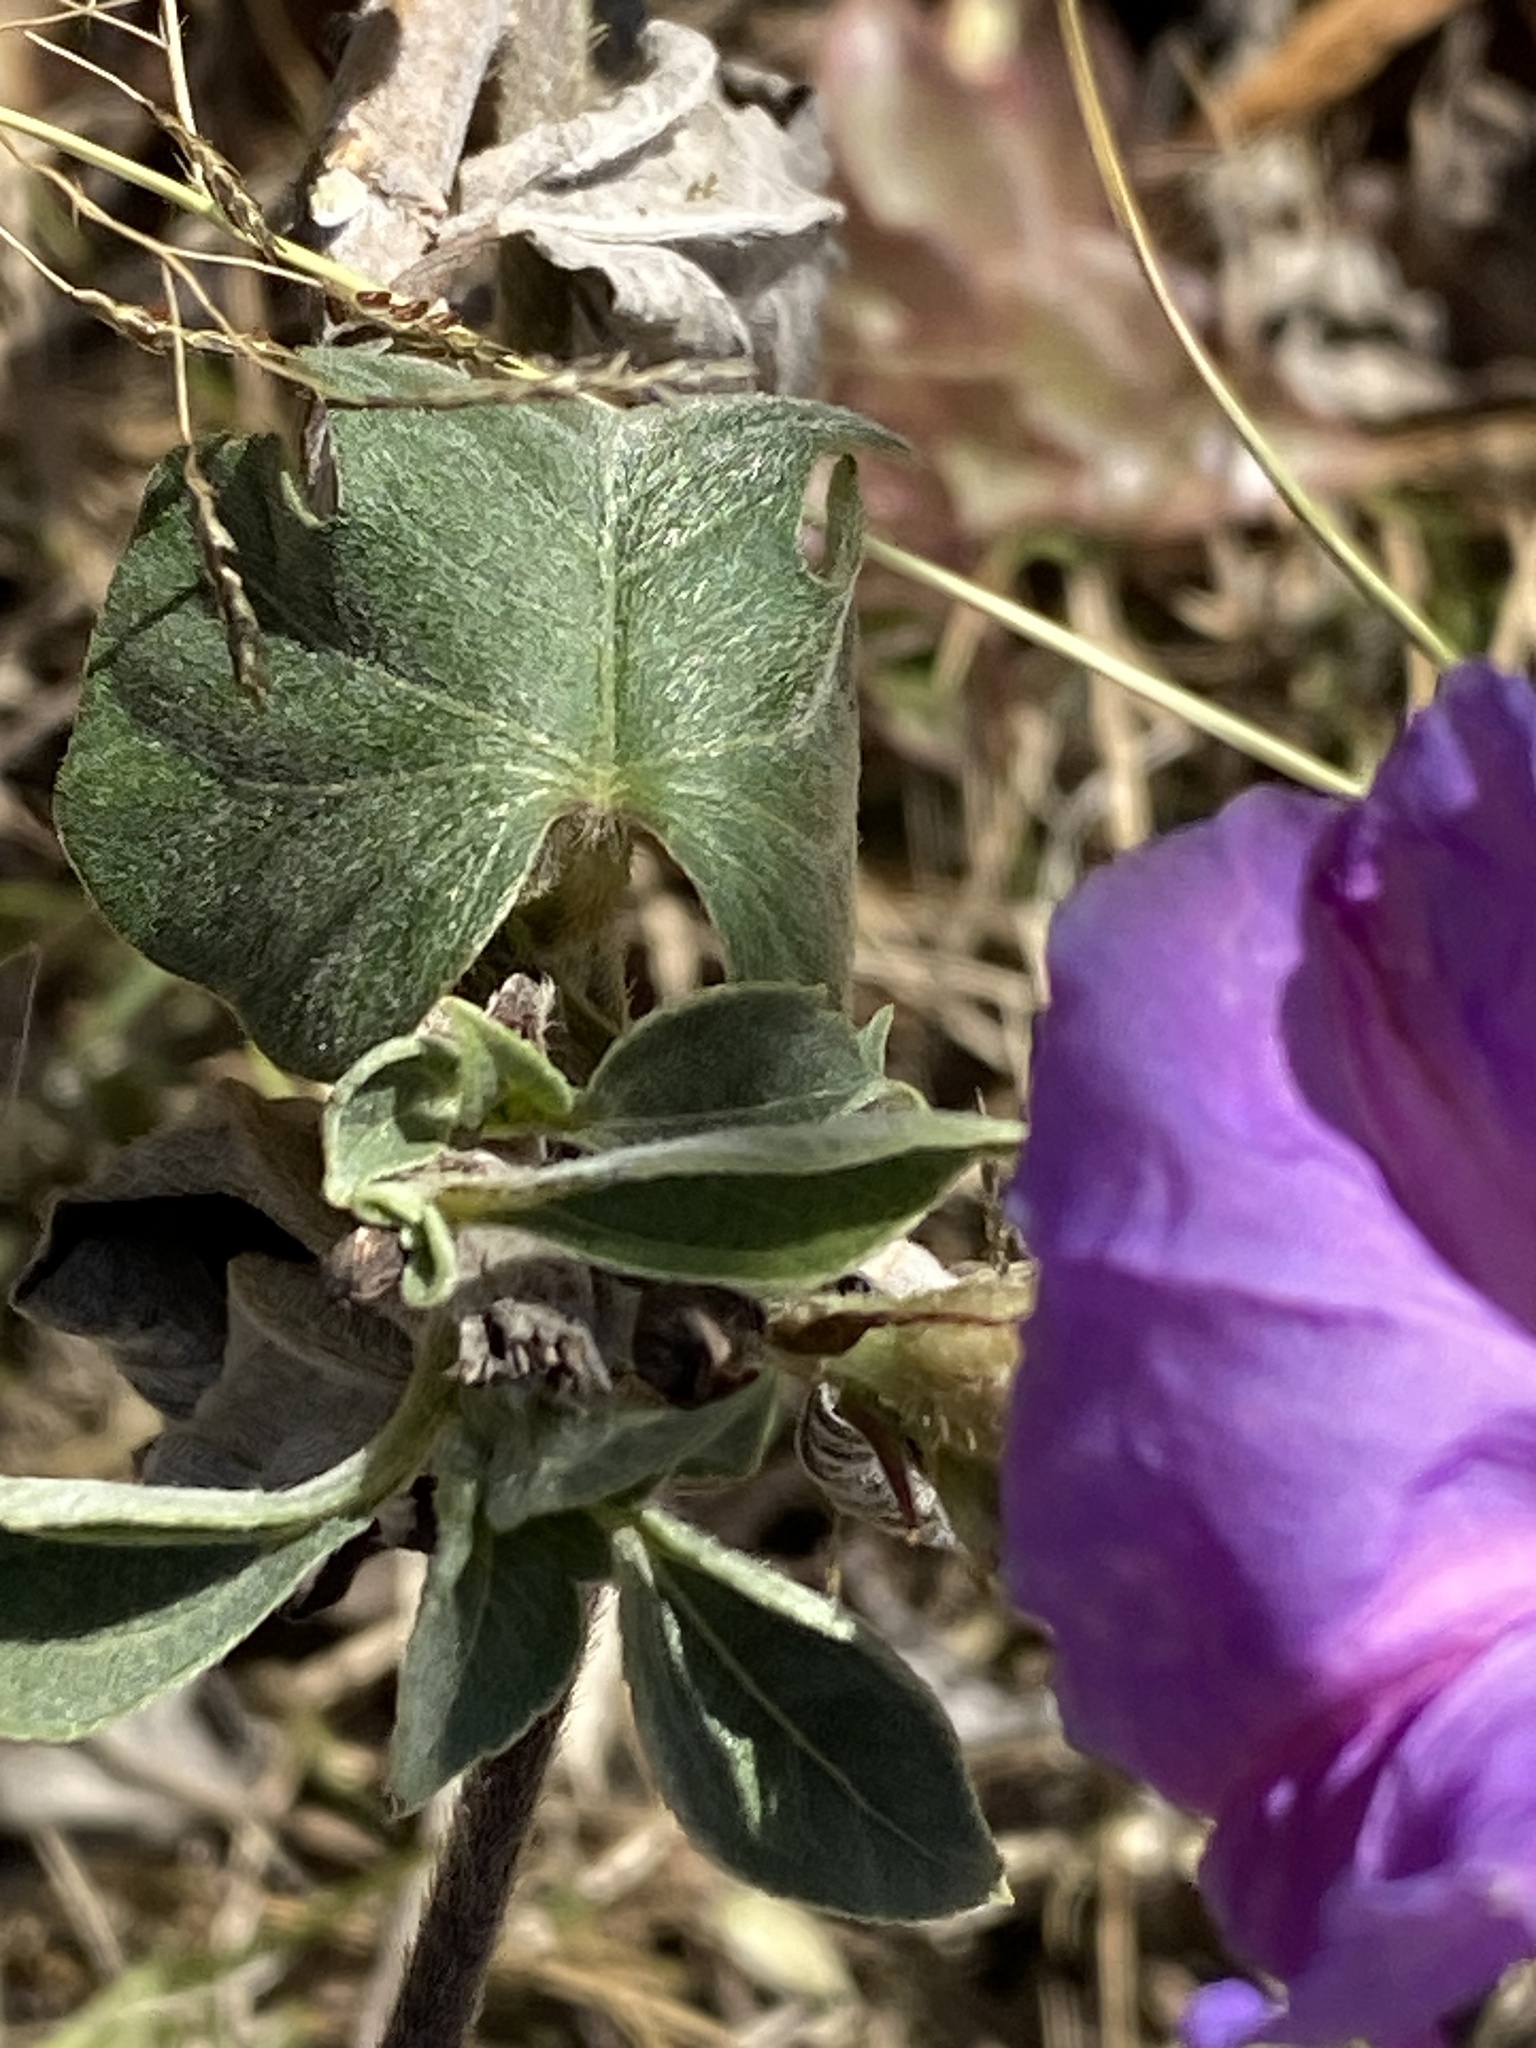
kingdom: Plantae
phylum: Tracheophyta
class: Magnoliopsida
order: Solanales
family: Convolvulaceae
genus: Ipomoea
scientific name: Ipomoea indica
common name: Blue dawnflower
